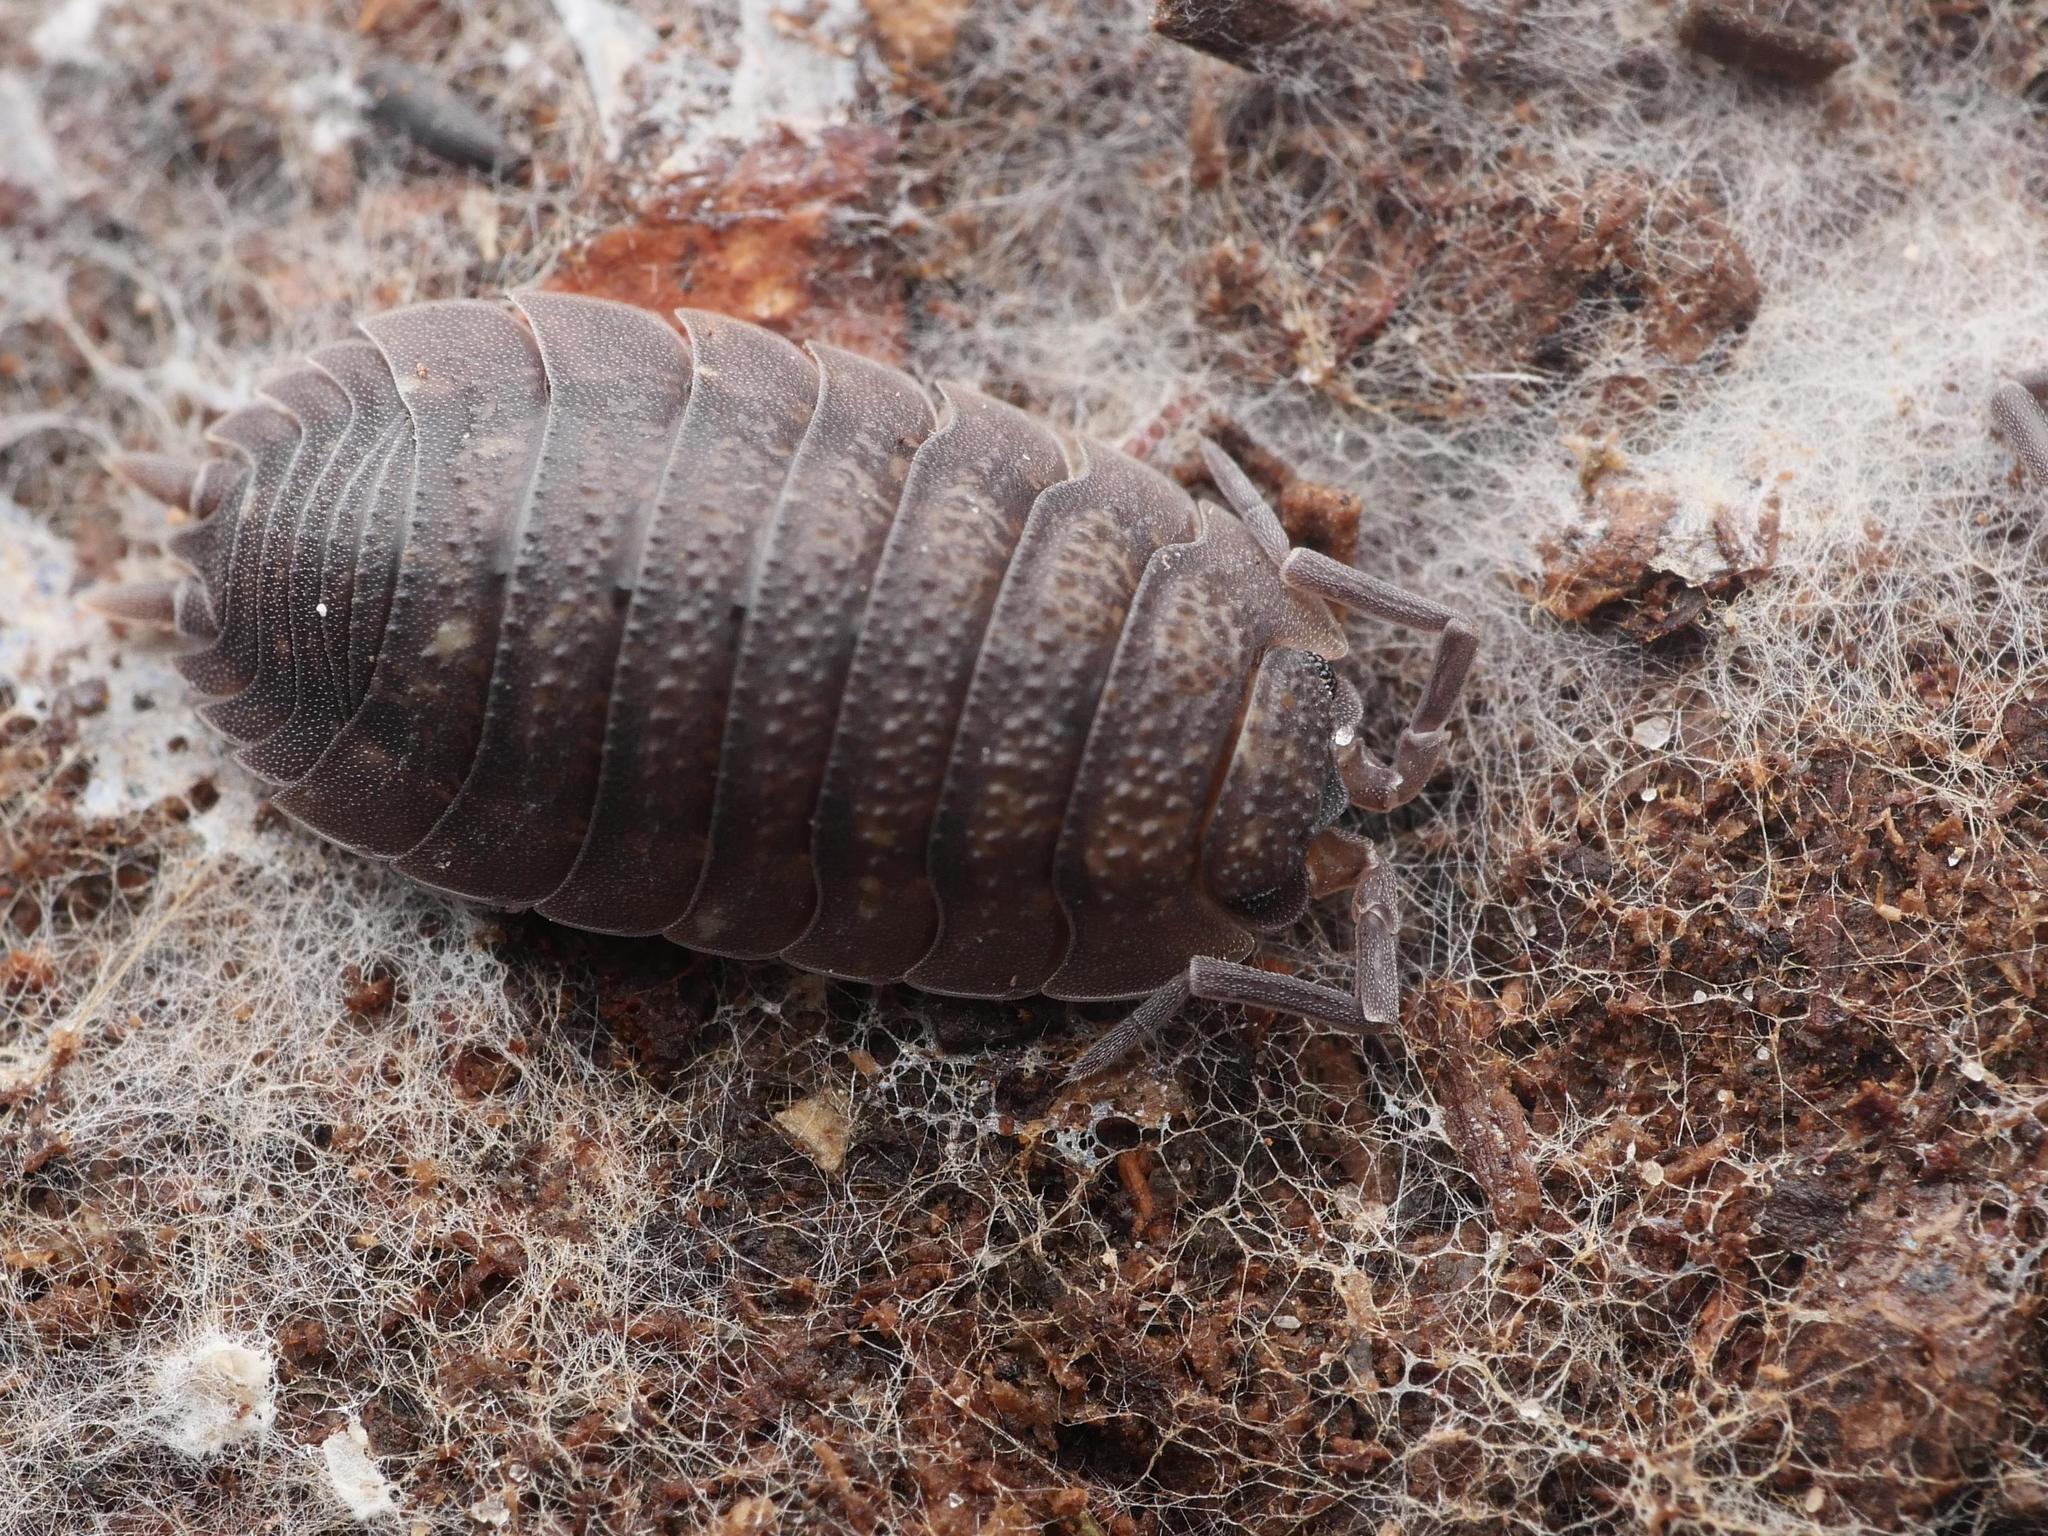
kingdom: Animalia
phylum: Arthropoda
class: Malacostraca
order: Isopoda
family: Porcellionidae
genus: Porcellio
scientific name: Porcellio scaber
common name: Common rough woodlouse
